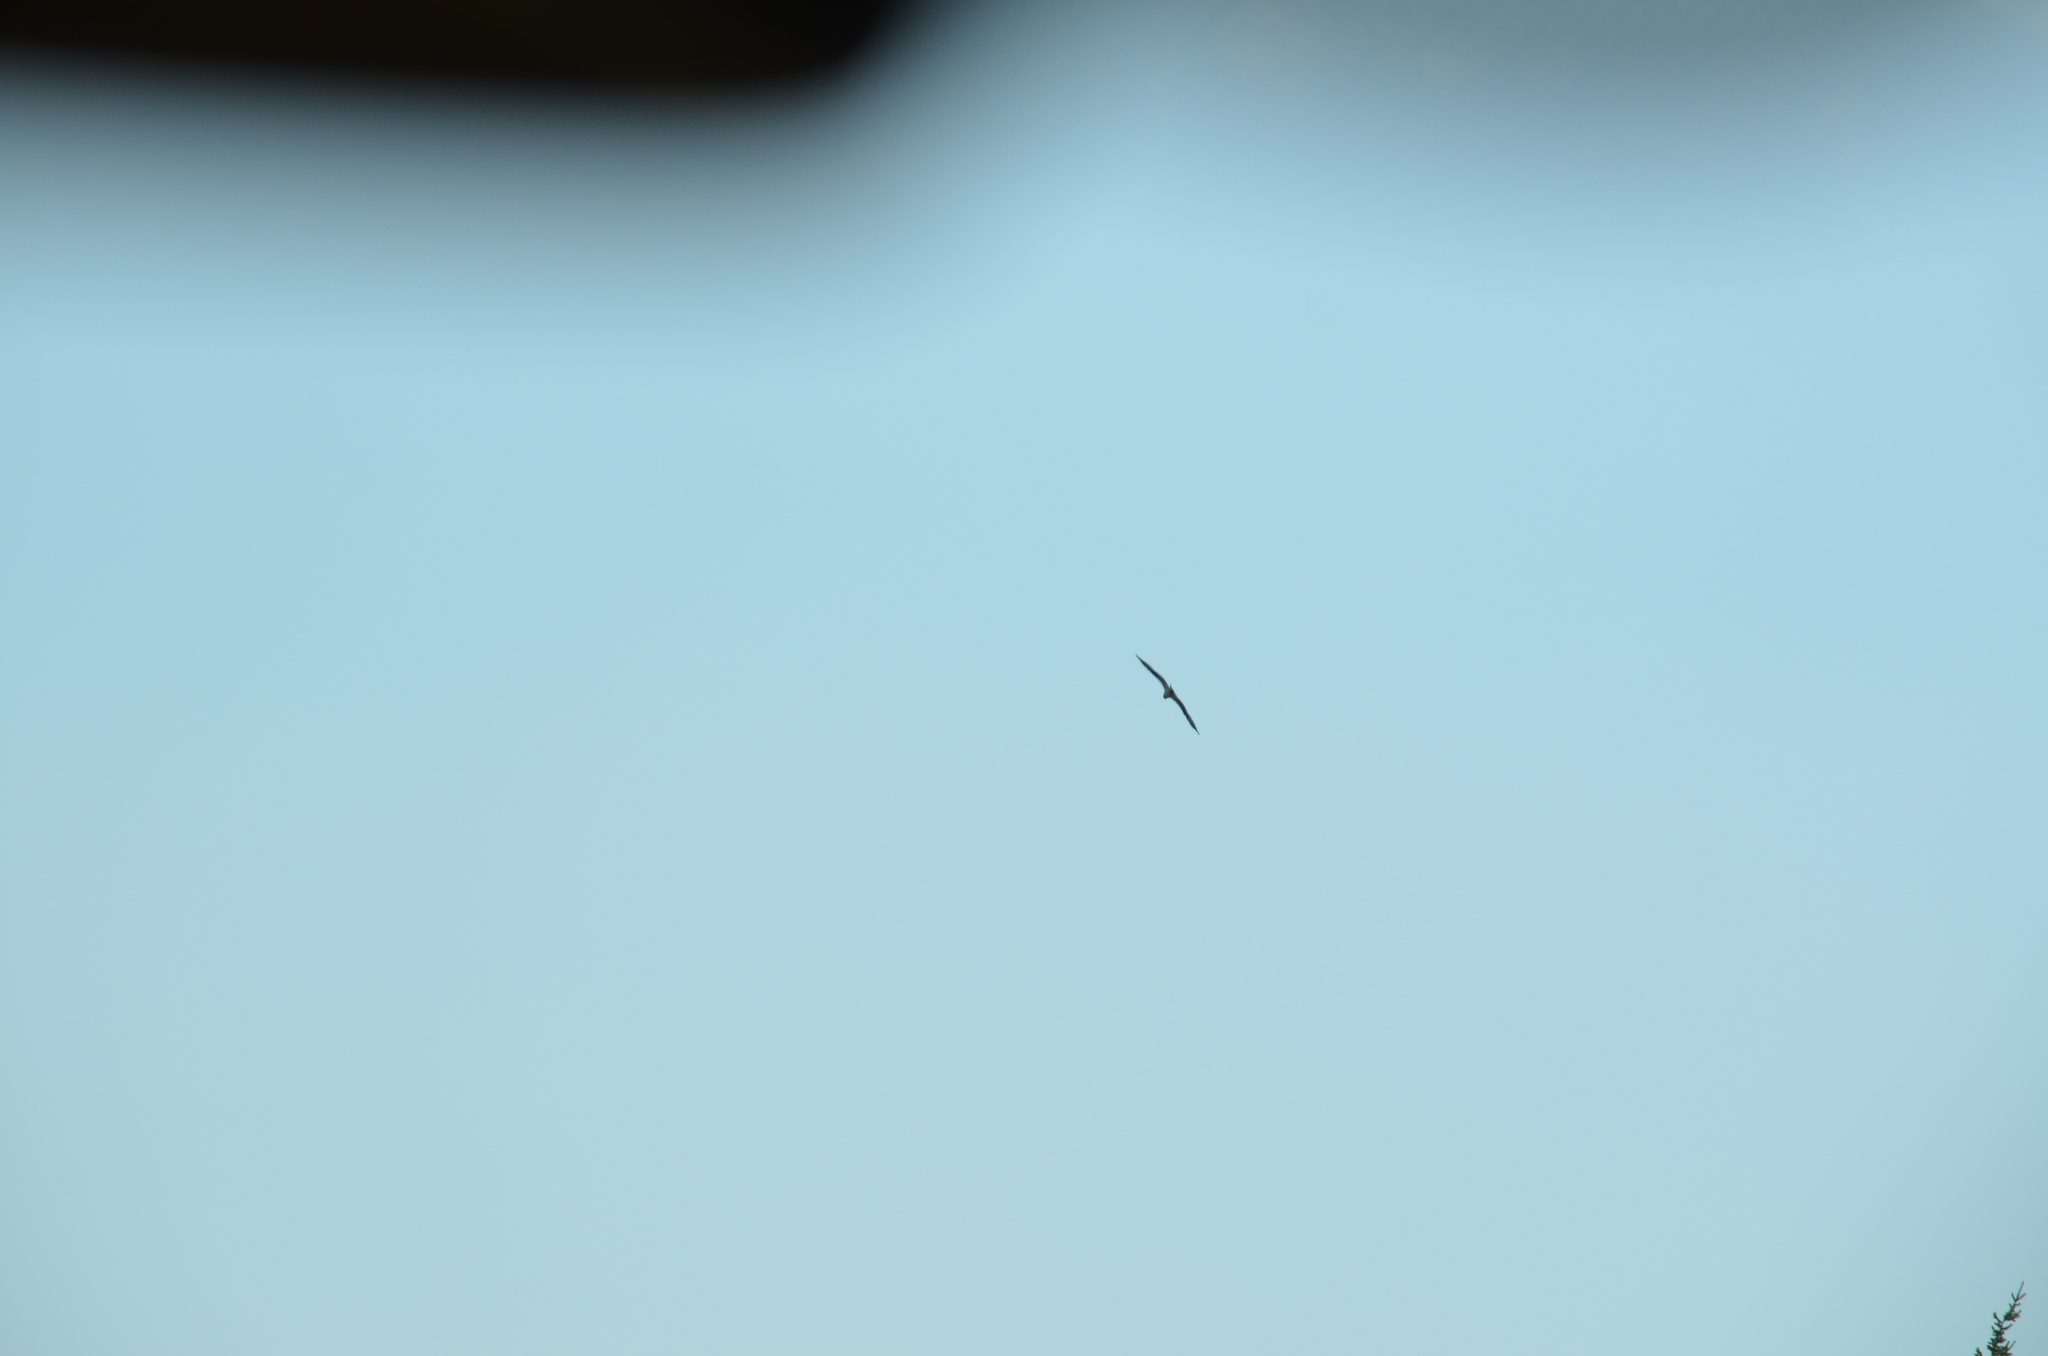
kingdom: Animalia
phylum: Chordata
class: Aves
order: Accipitriformes
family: Pandionidae
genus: Pandion
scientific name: Pandion haliaetus
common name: Osprey
